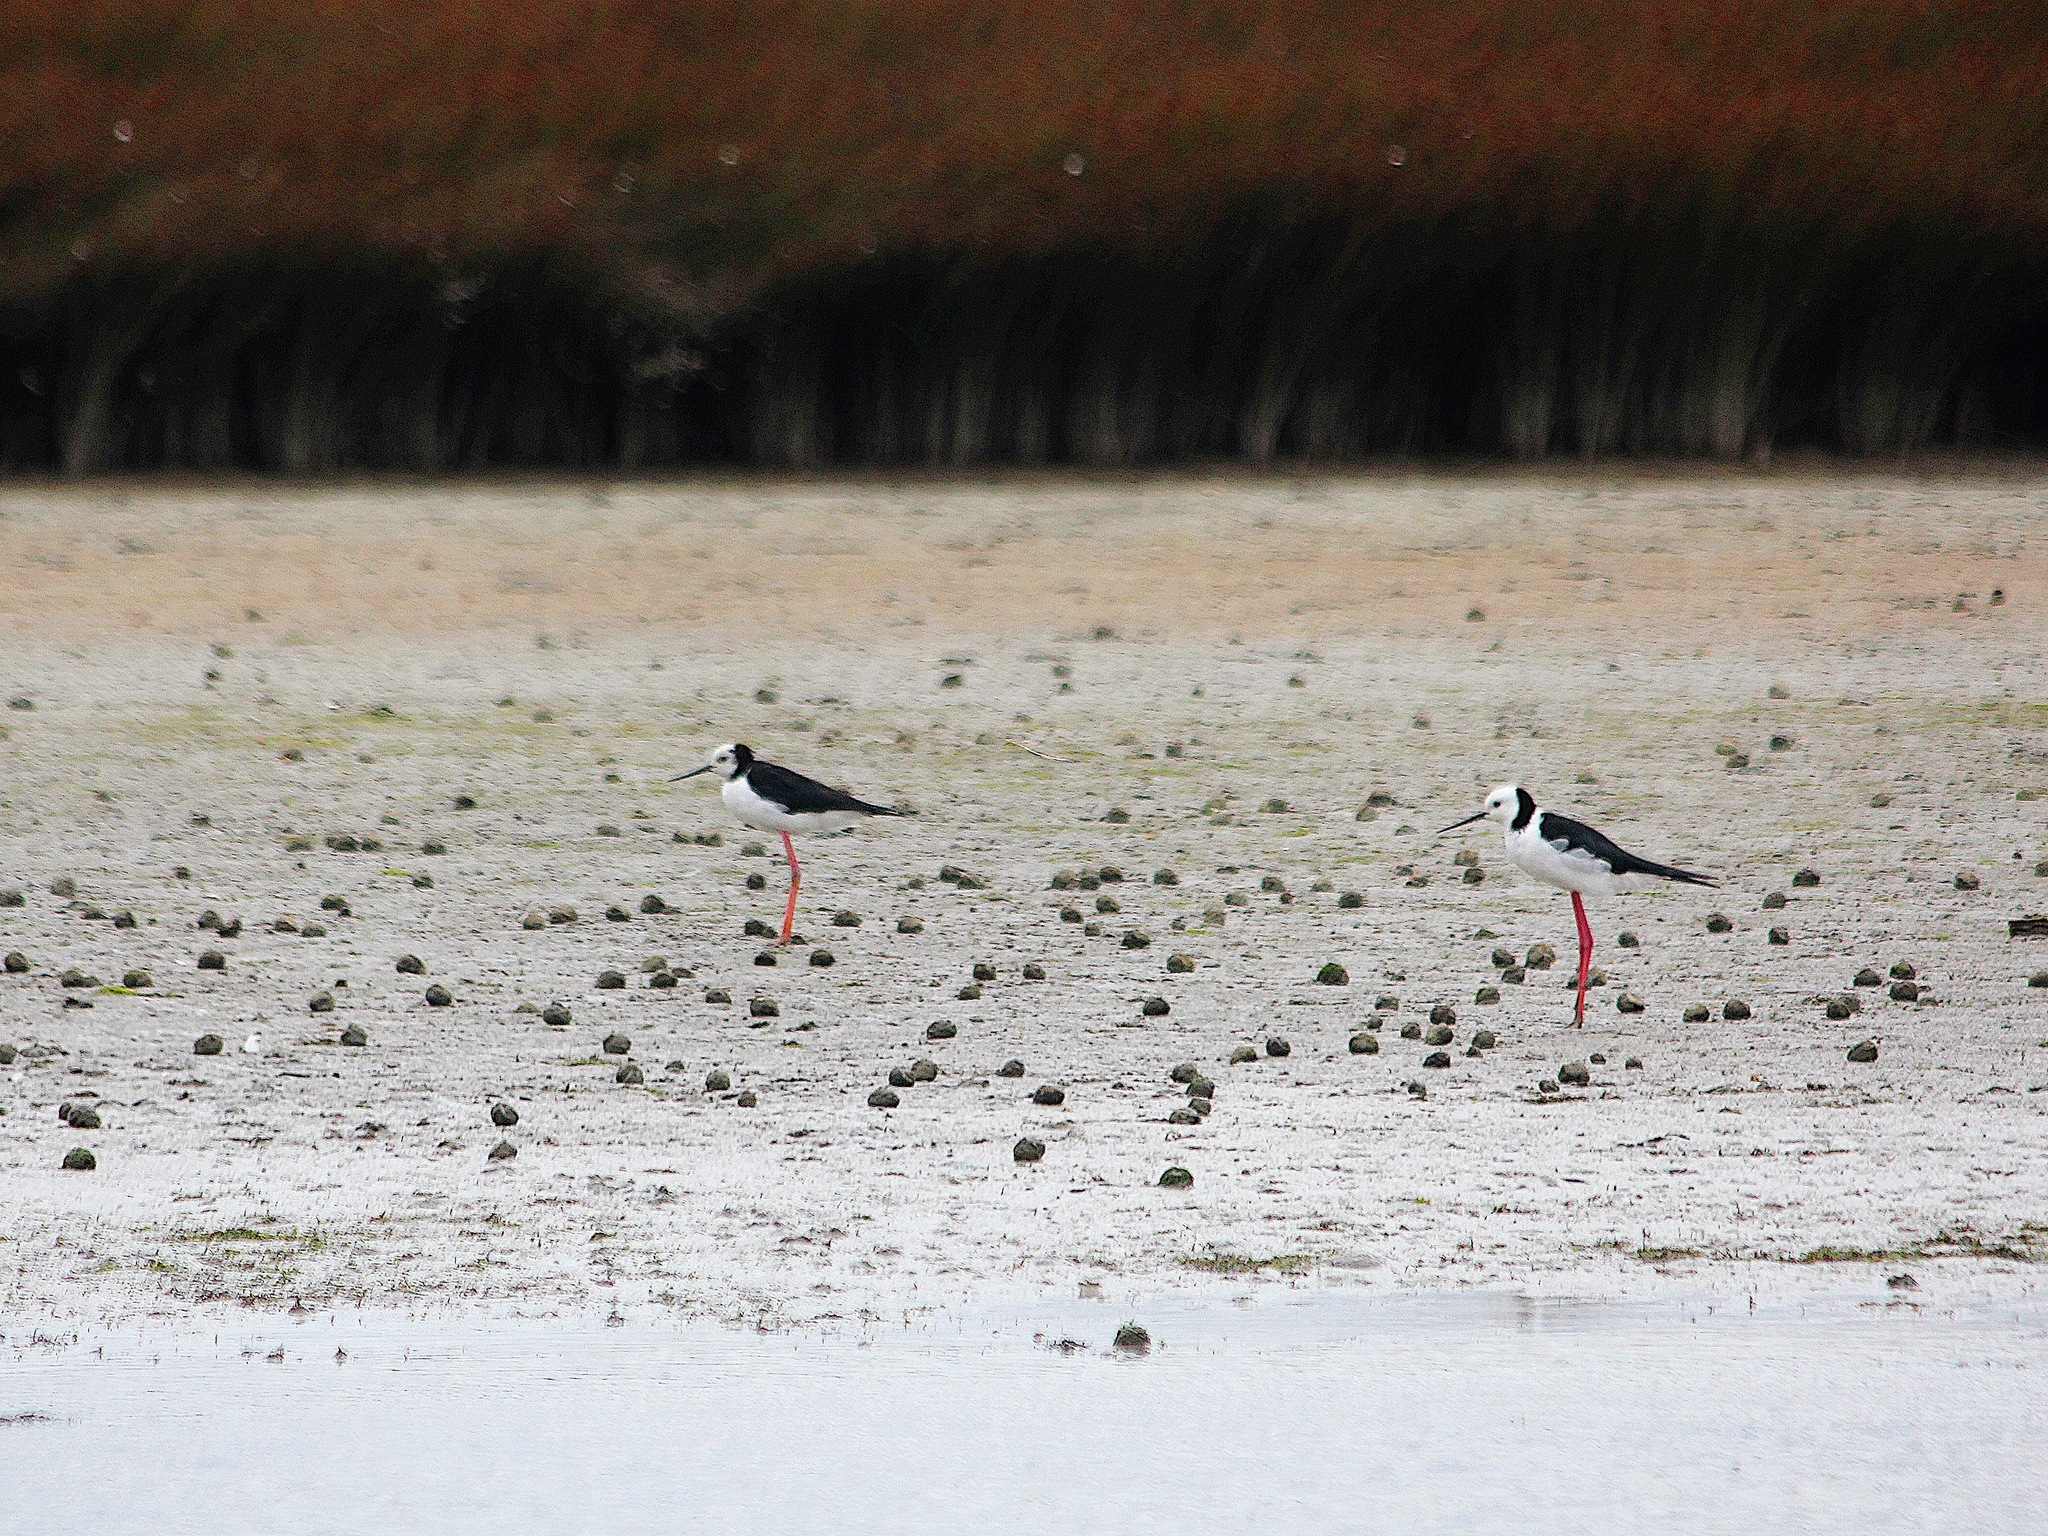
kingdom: Animalia
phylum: Chordata
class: Aves
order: Charadriiformes
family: Recurvirostridae
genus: Himantopus
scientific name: Himantopus leucocephalus
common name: White-headed stilt
